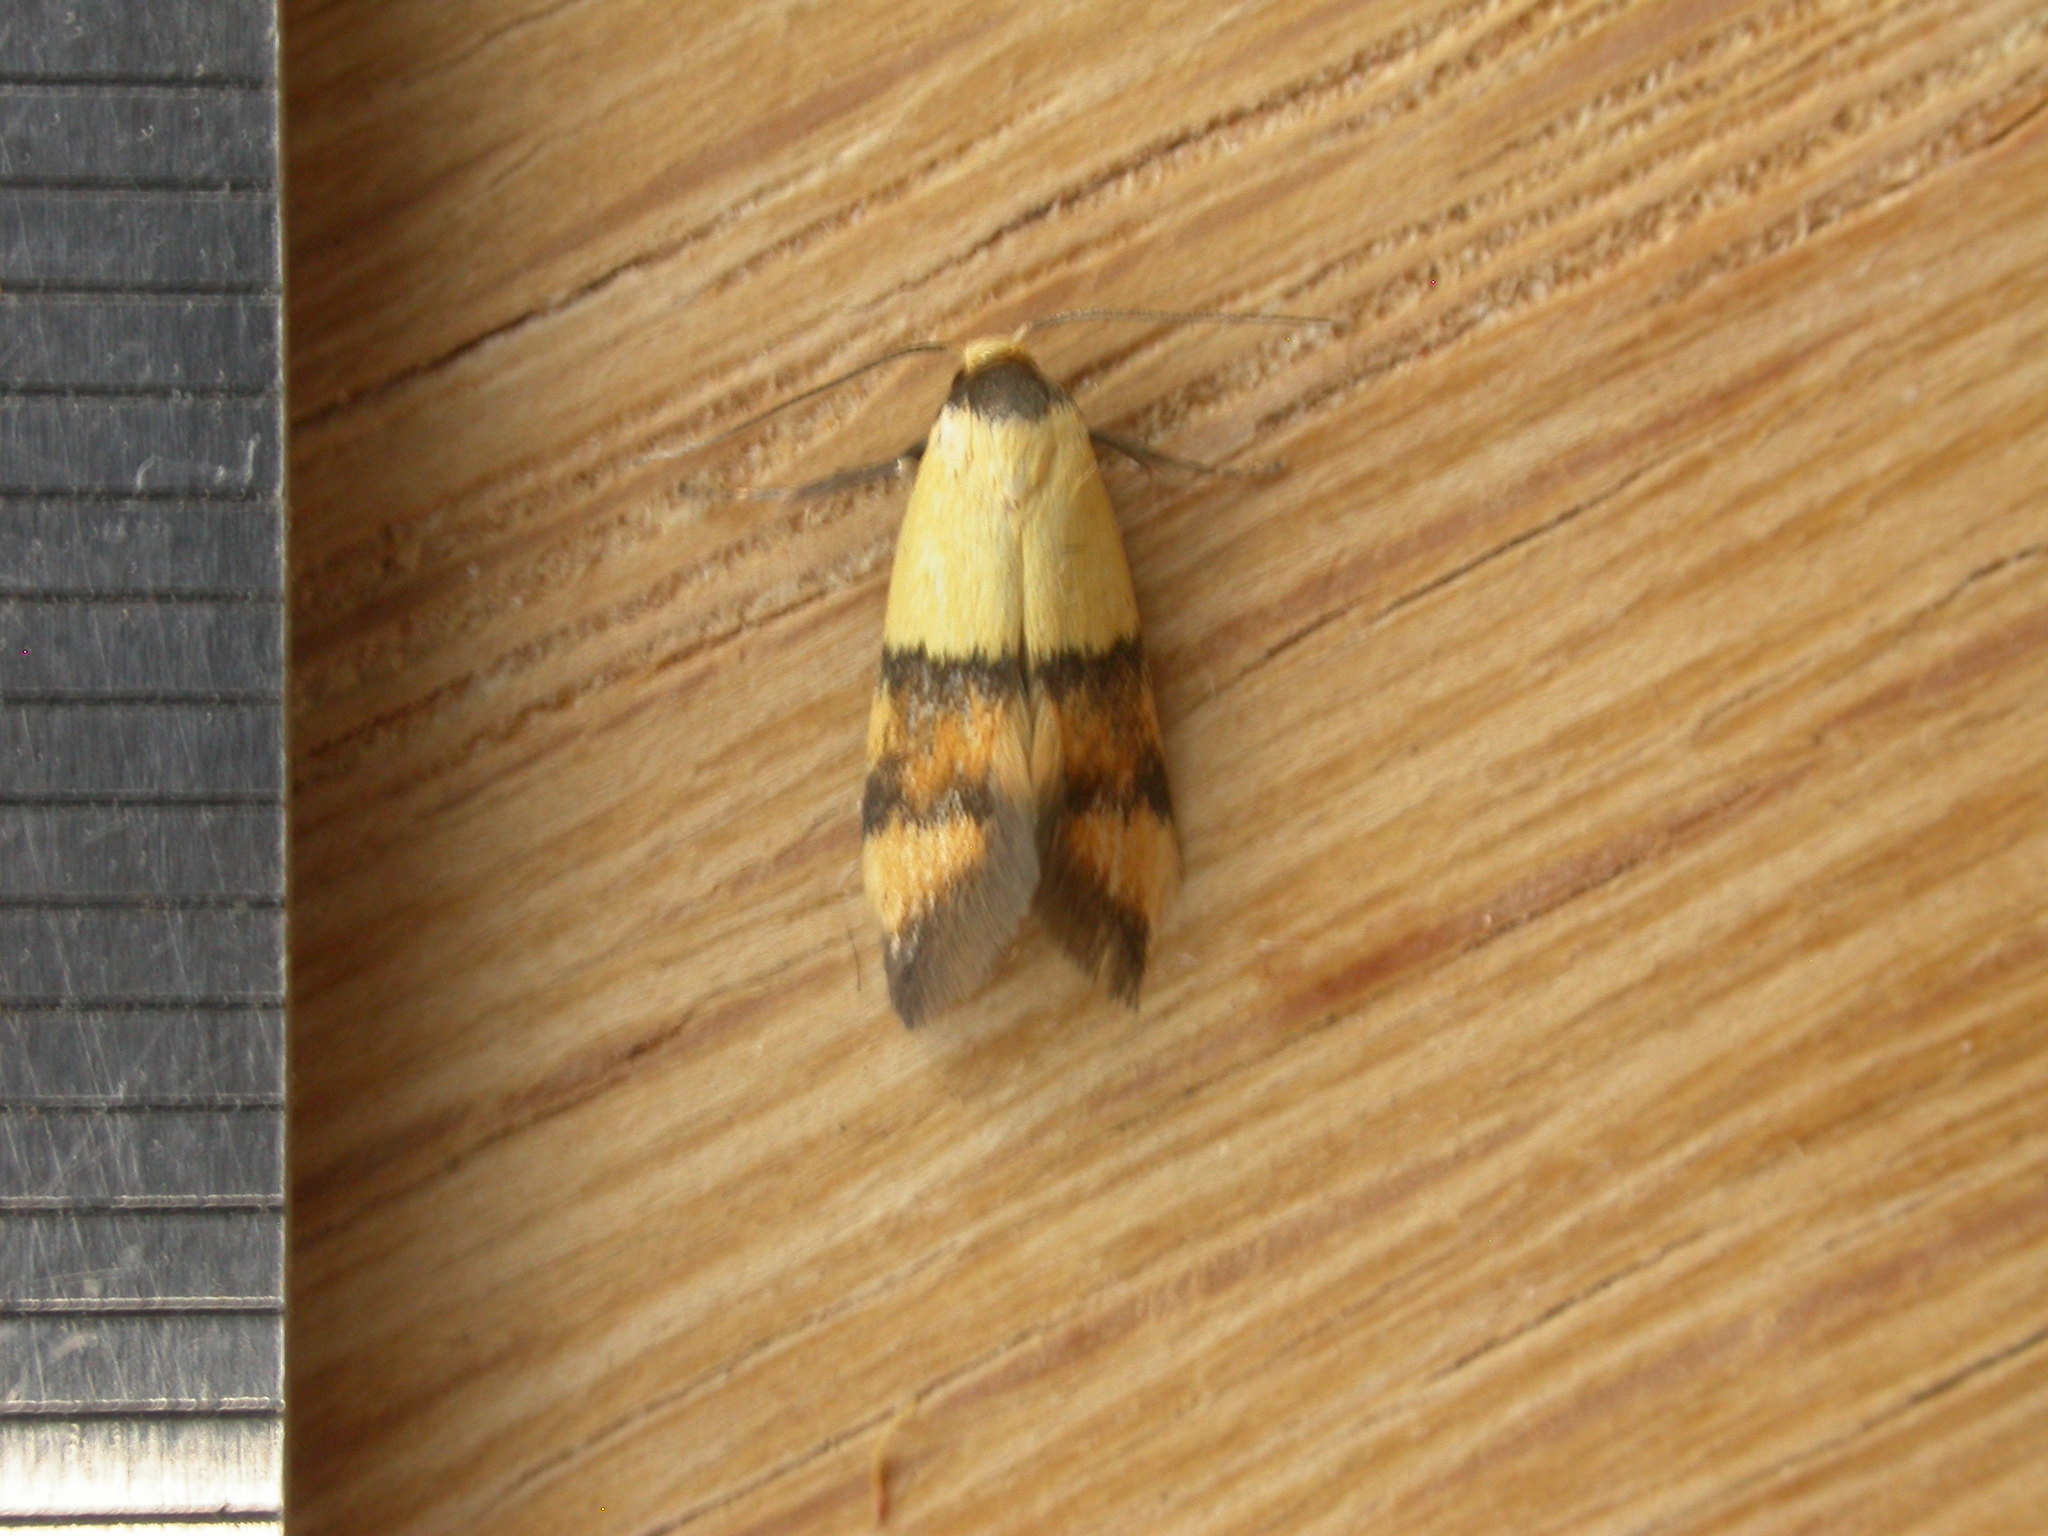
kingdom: Animalia
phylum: Arthropoda
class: Insecta
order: Lepidoptera
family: Oecophoridae
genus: Temnogyropa
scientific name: Temnogyropa stenomorpha
